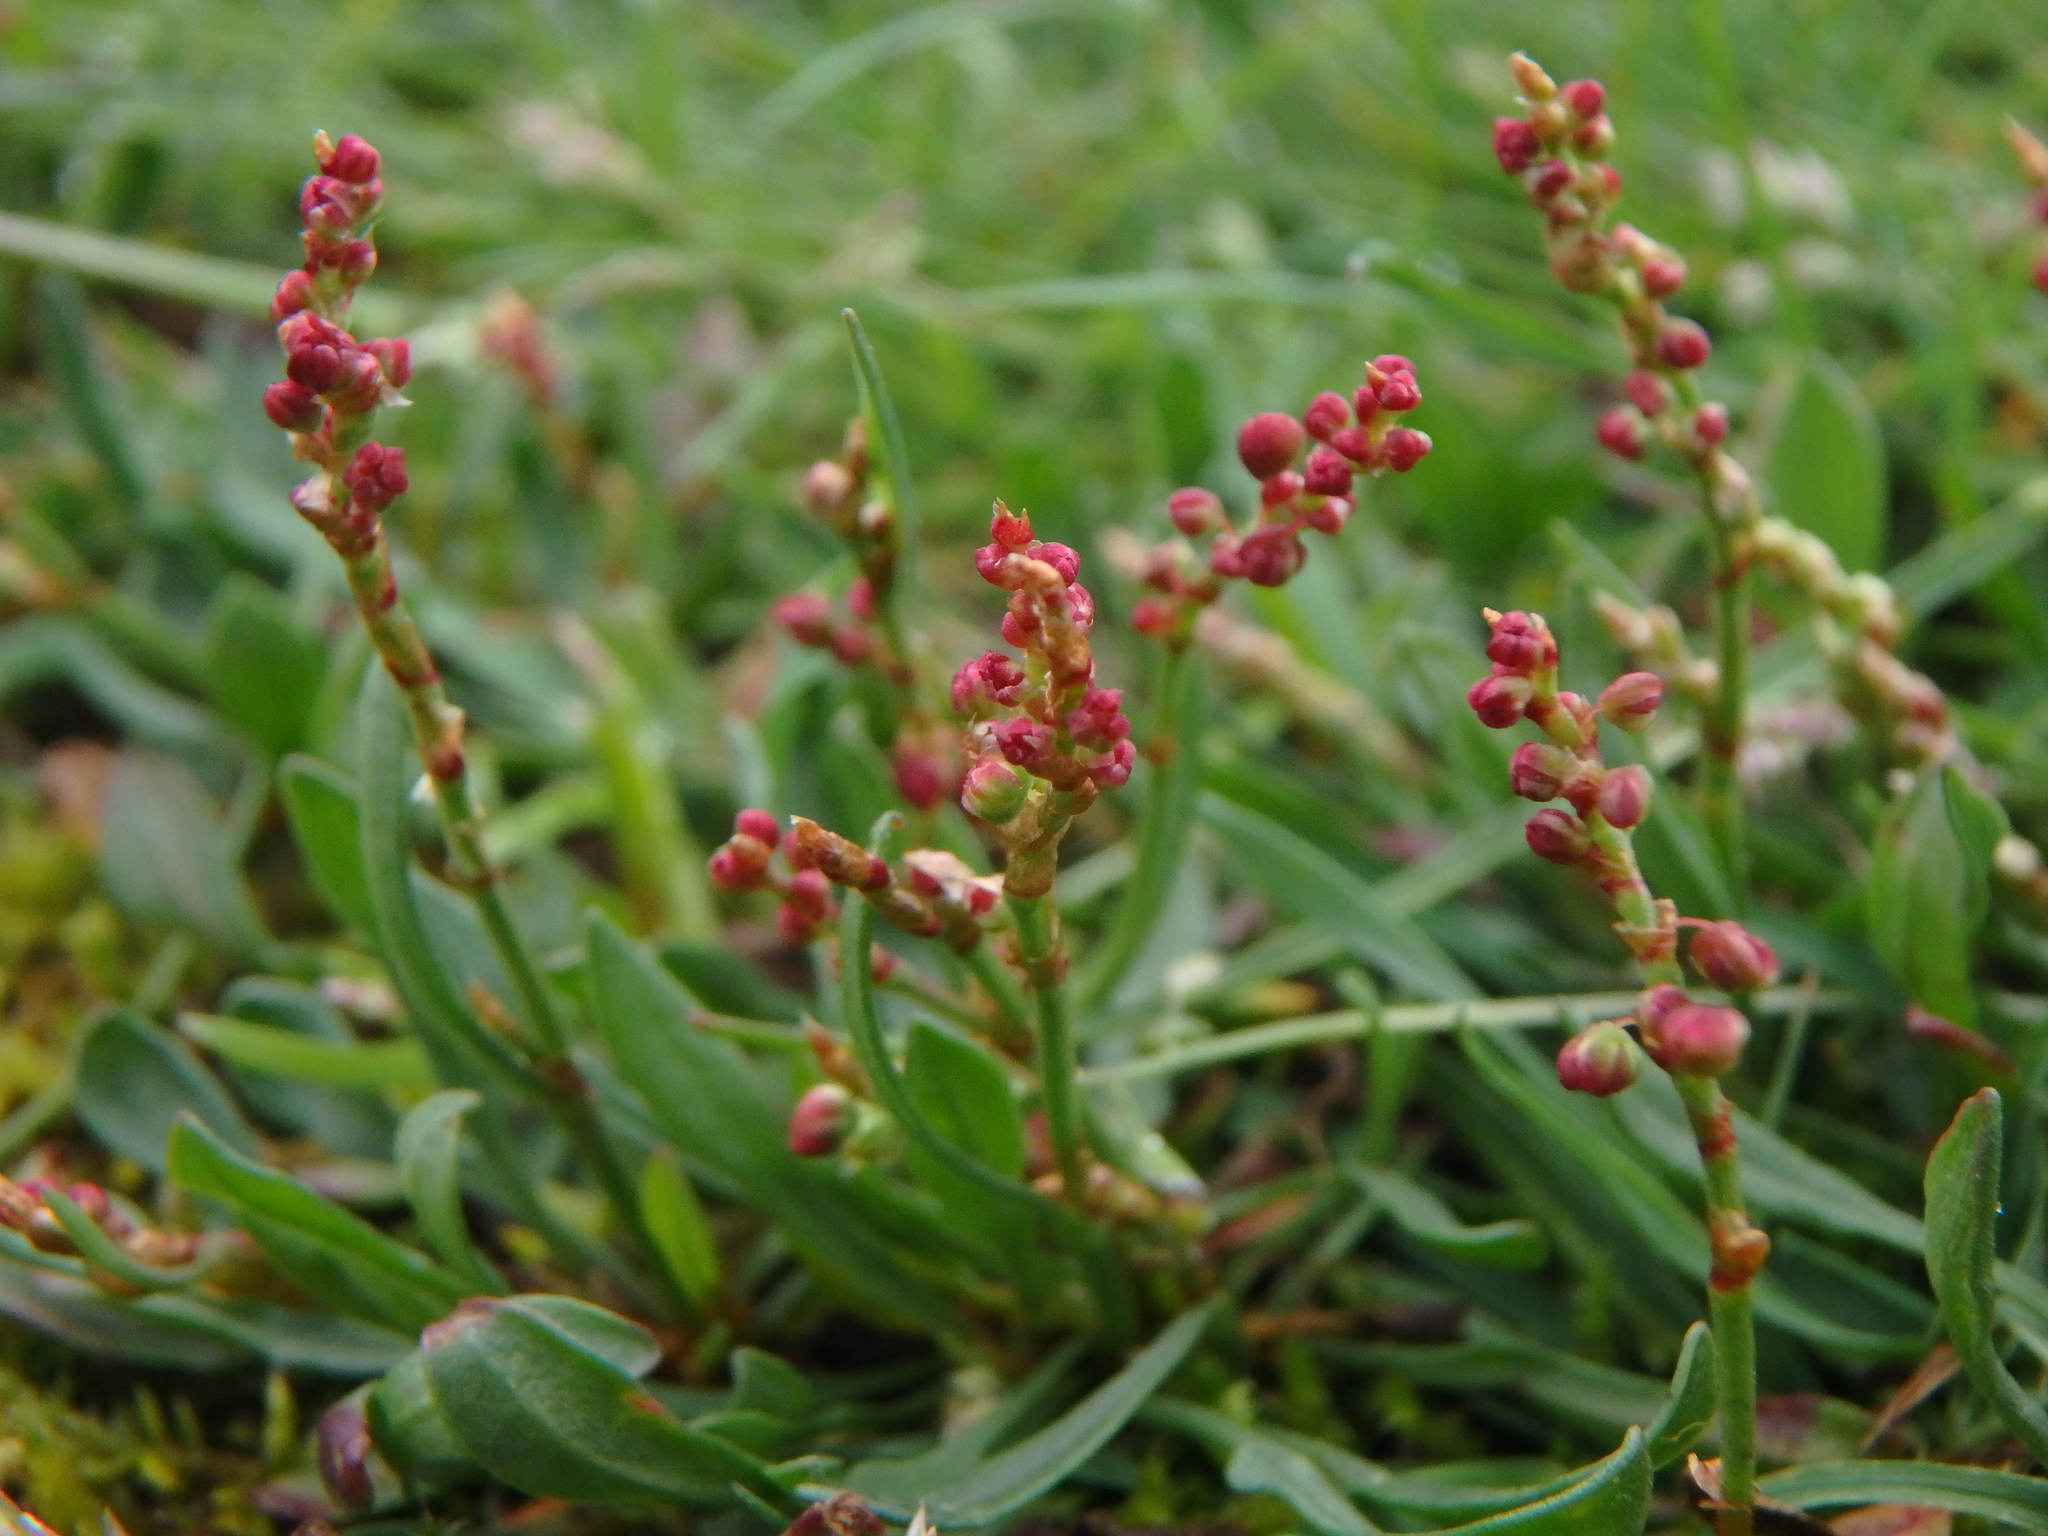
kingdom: Plantae
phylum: Tracheophyta
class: Magnoliopsida
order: Caryophyllales
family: Polygonaceae
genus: Rumex
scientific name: Rumex acetosella
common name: Common sheep sorrel
